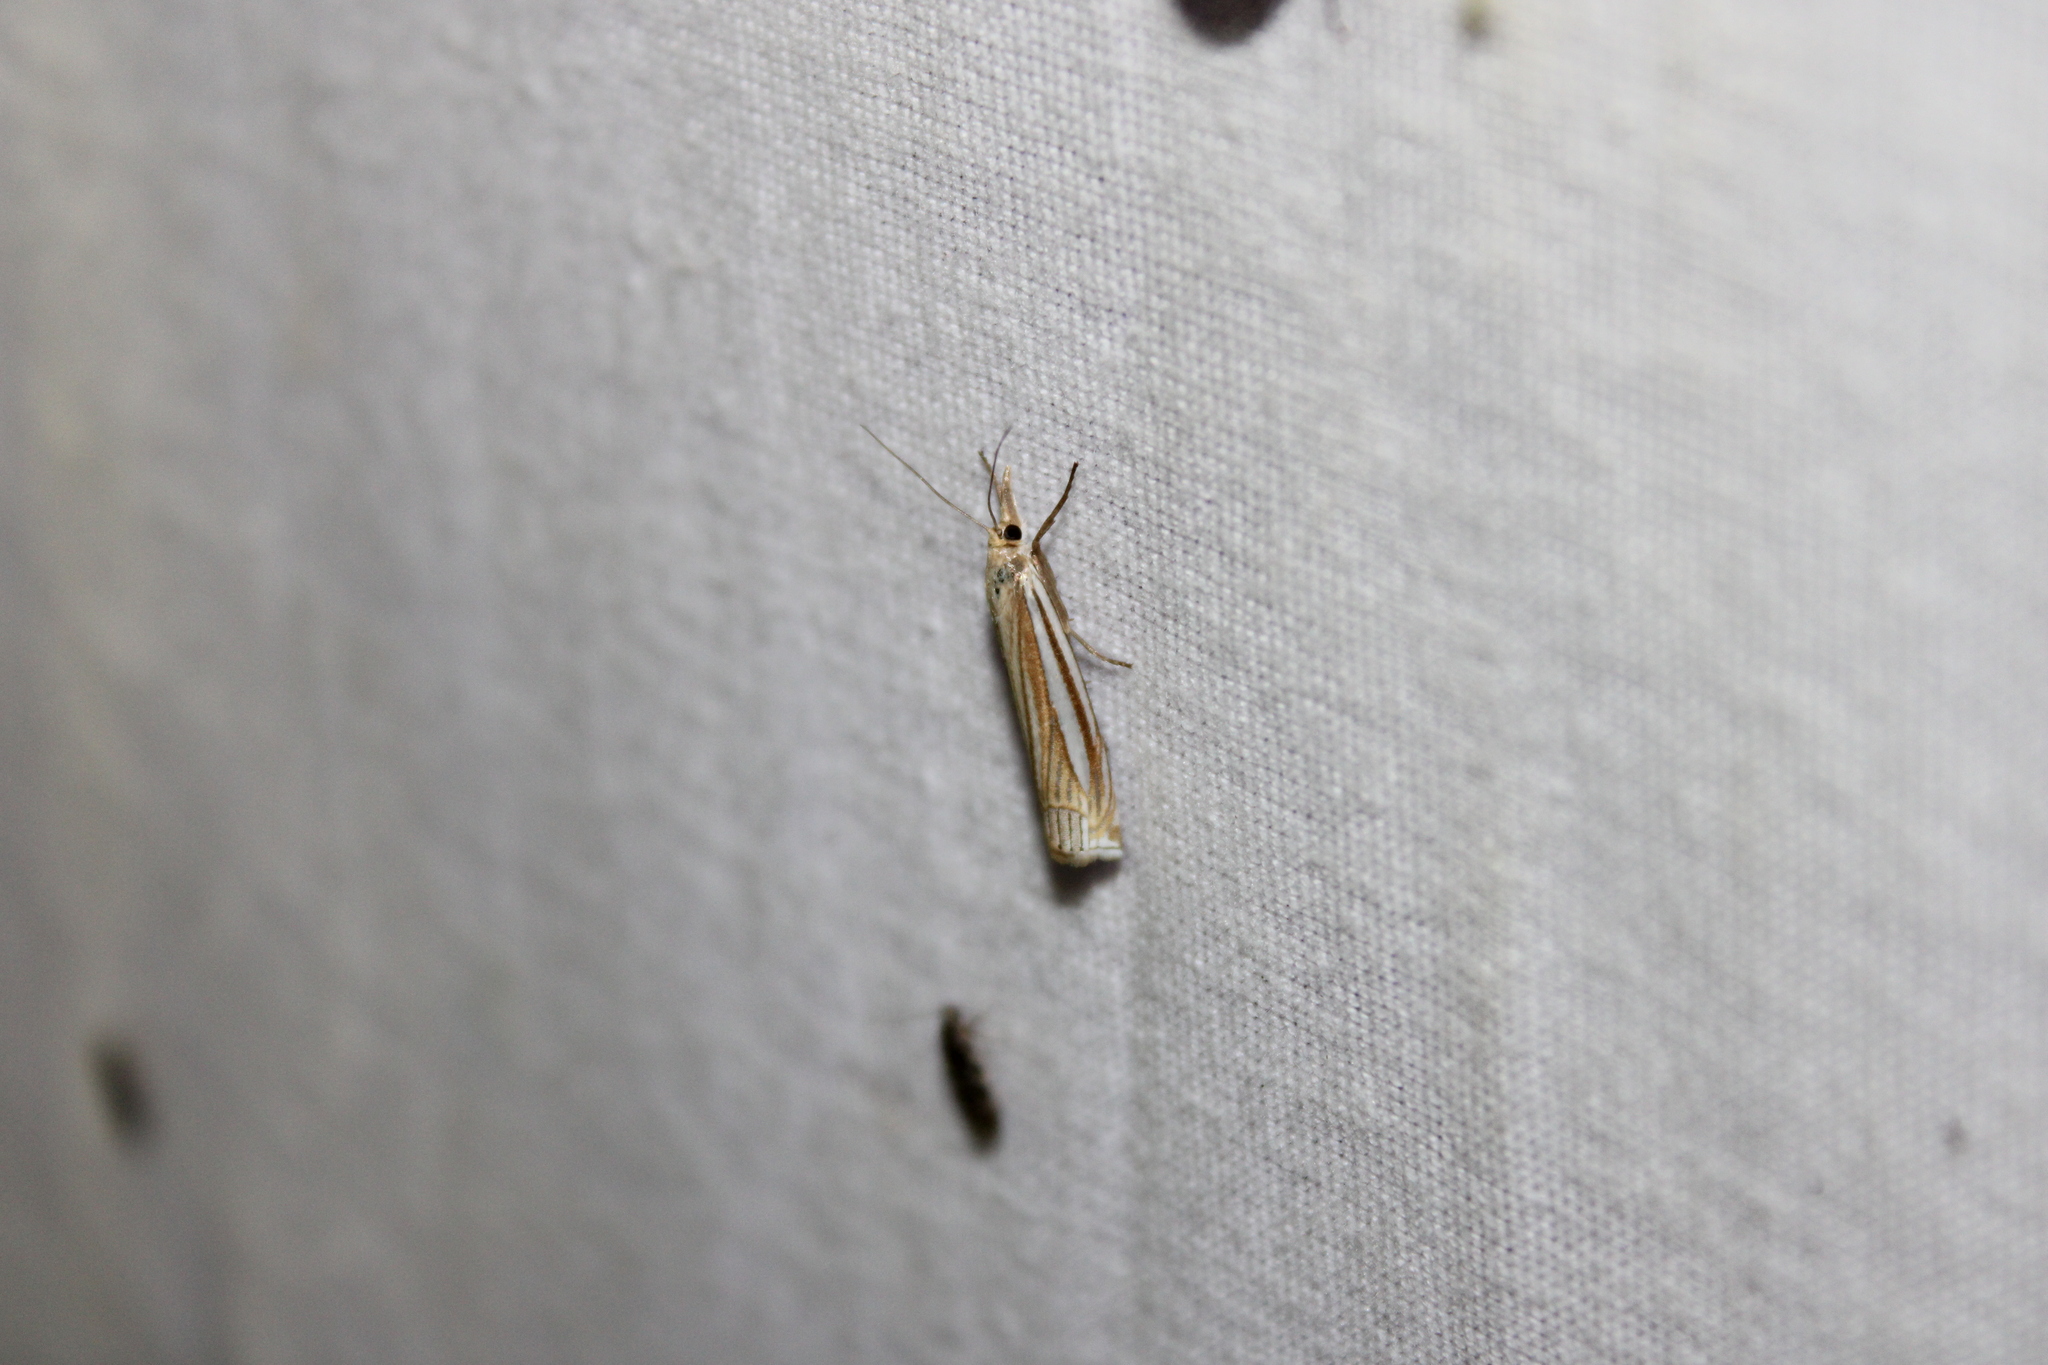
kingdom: Animalia
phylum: Arthropoda
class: Insecta
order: Lepidoptera
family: Crambidae
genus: Crambus
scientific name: Crambus laqueatellus
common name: Eastern grass-veneer
